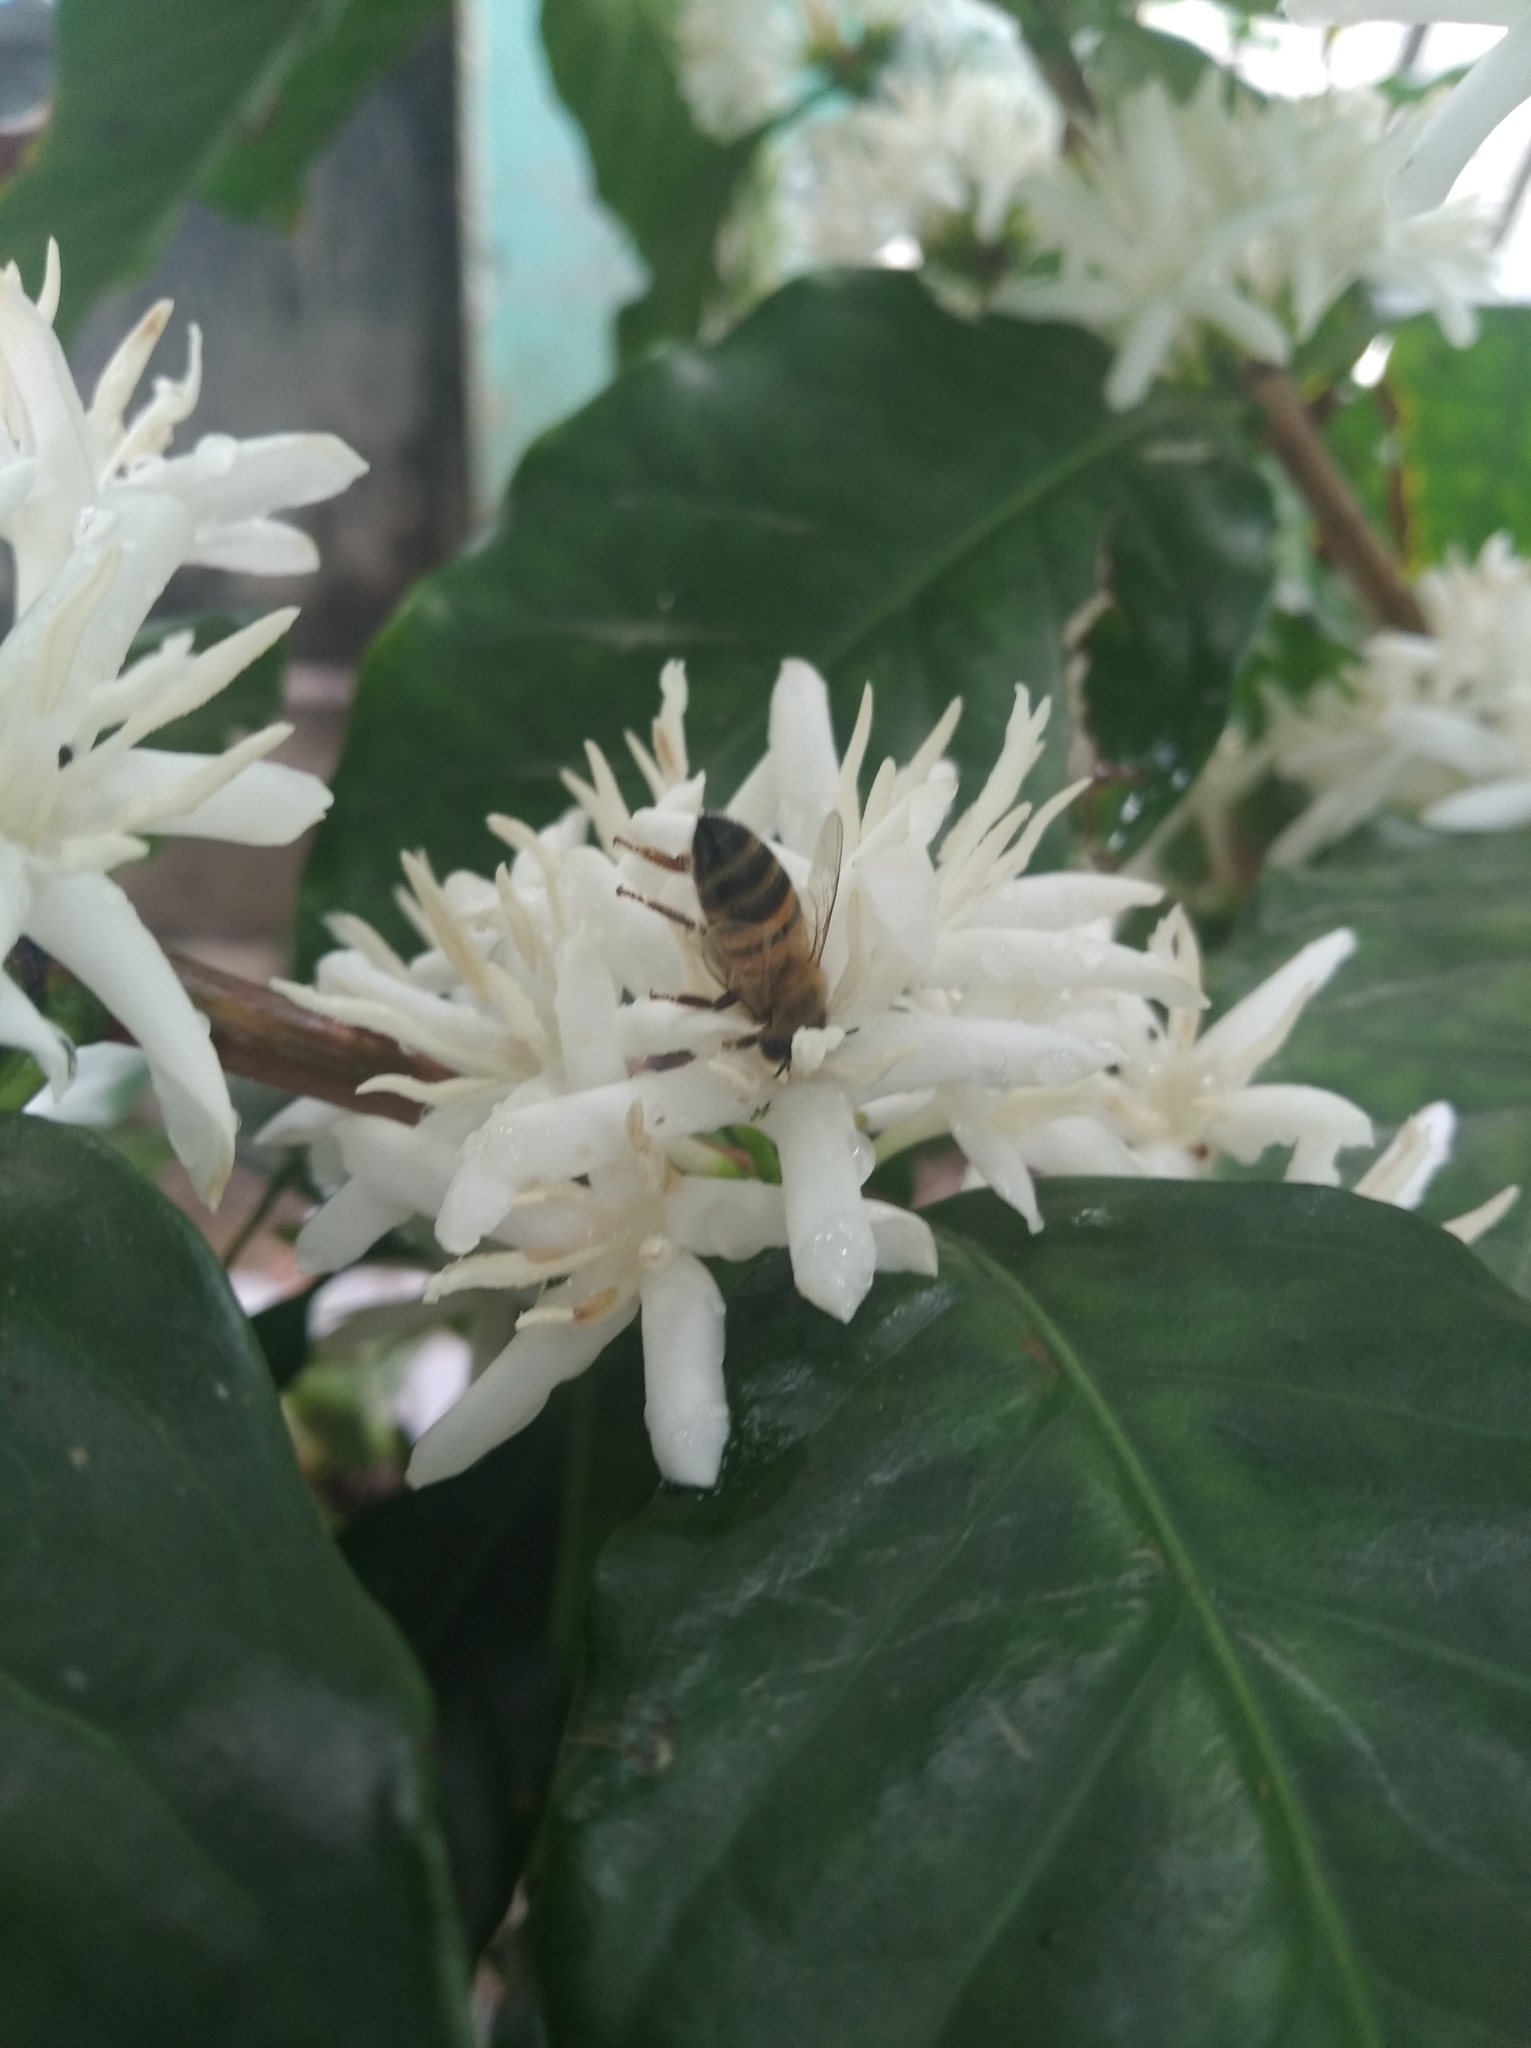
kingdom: Animalia
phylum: Arthropoda
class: Insecta
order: Hymenoptera
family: Apidae
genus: Apis
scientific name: Apis mellifera
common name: Honey bee
